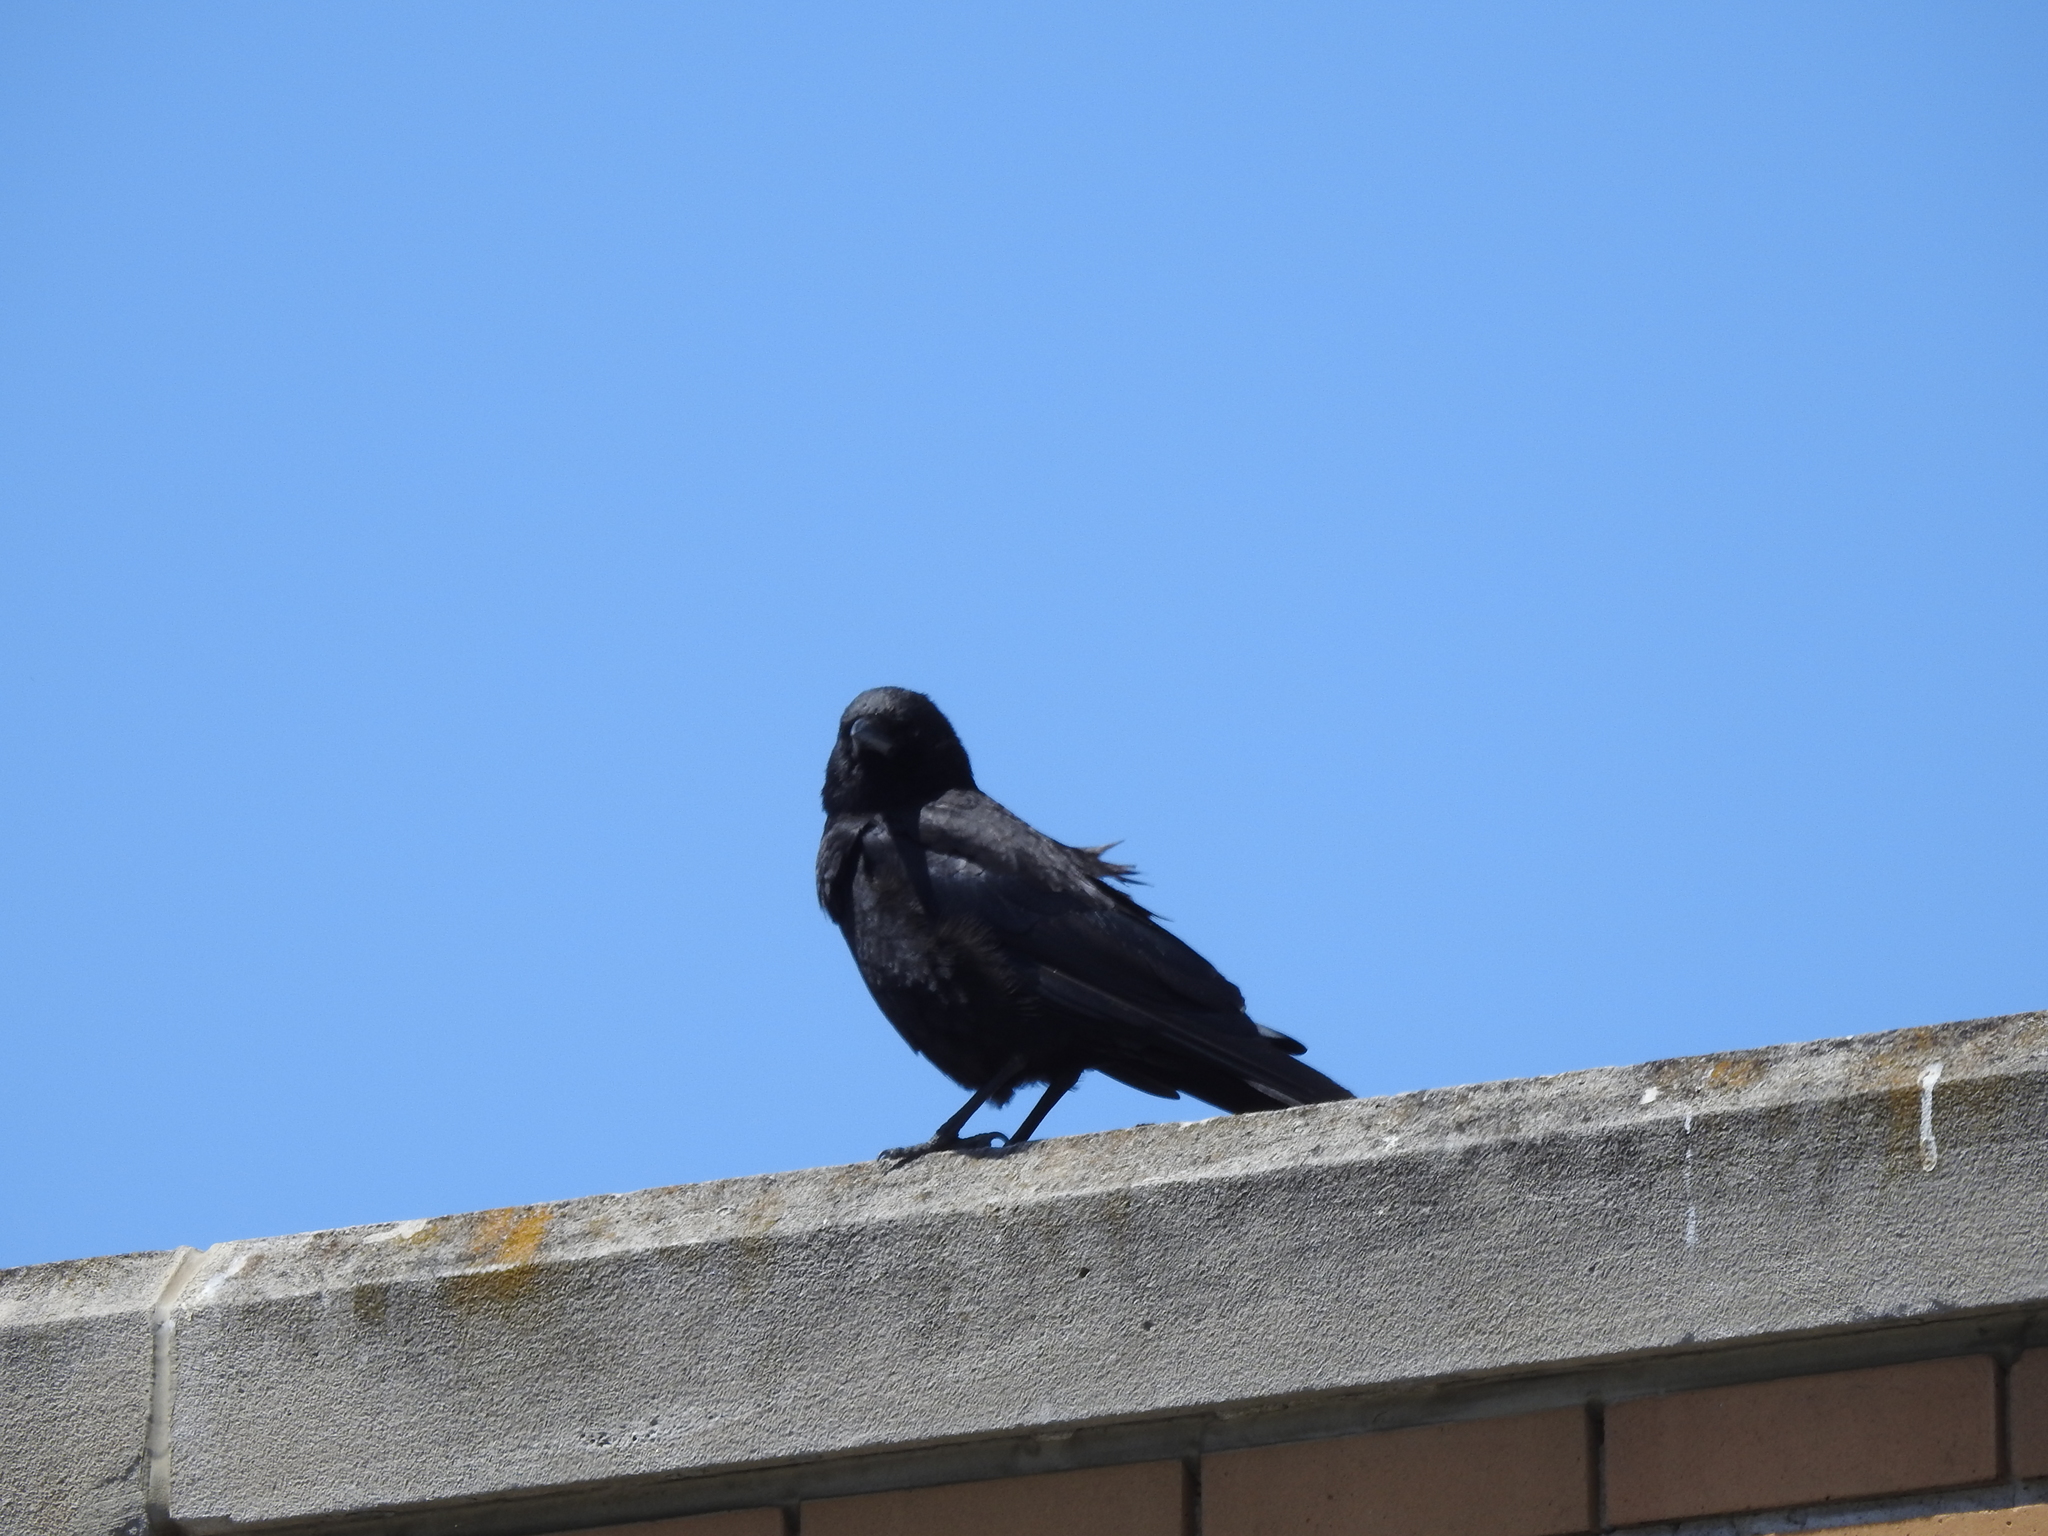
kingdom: Animalia
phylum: Chordata
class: Aves
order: Passeriformes
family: Corvidae
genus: Corvus
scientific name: Corvus brachyrhynchos
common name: American crow
